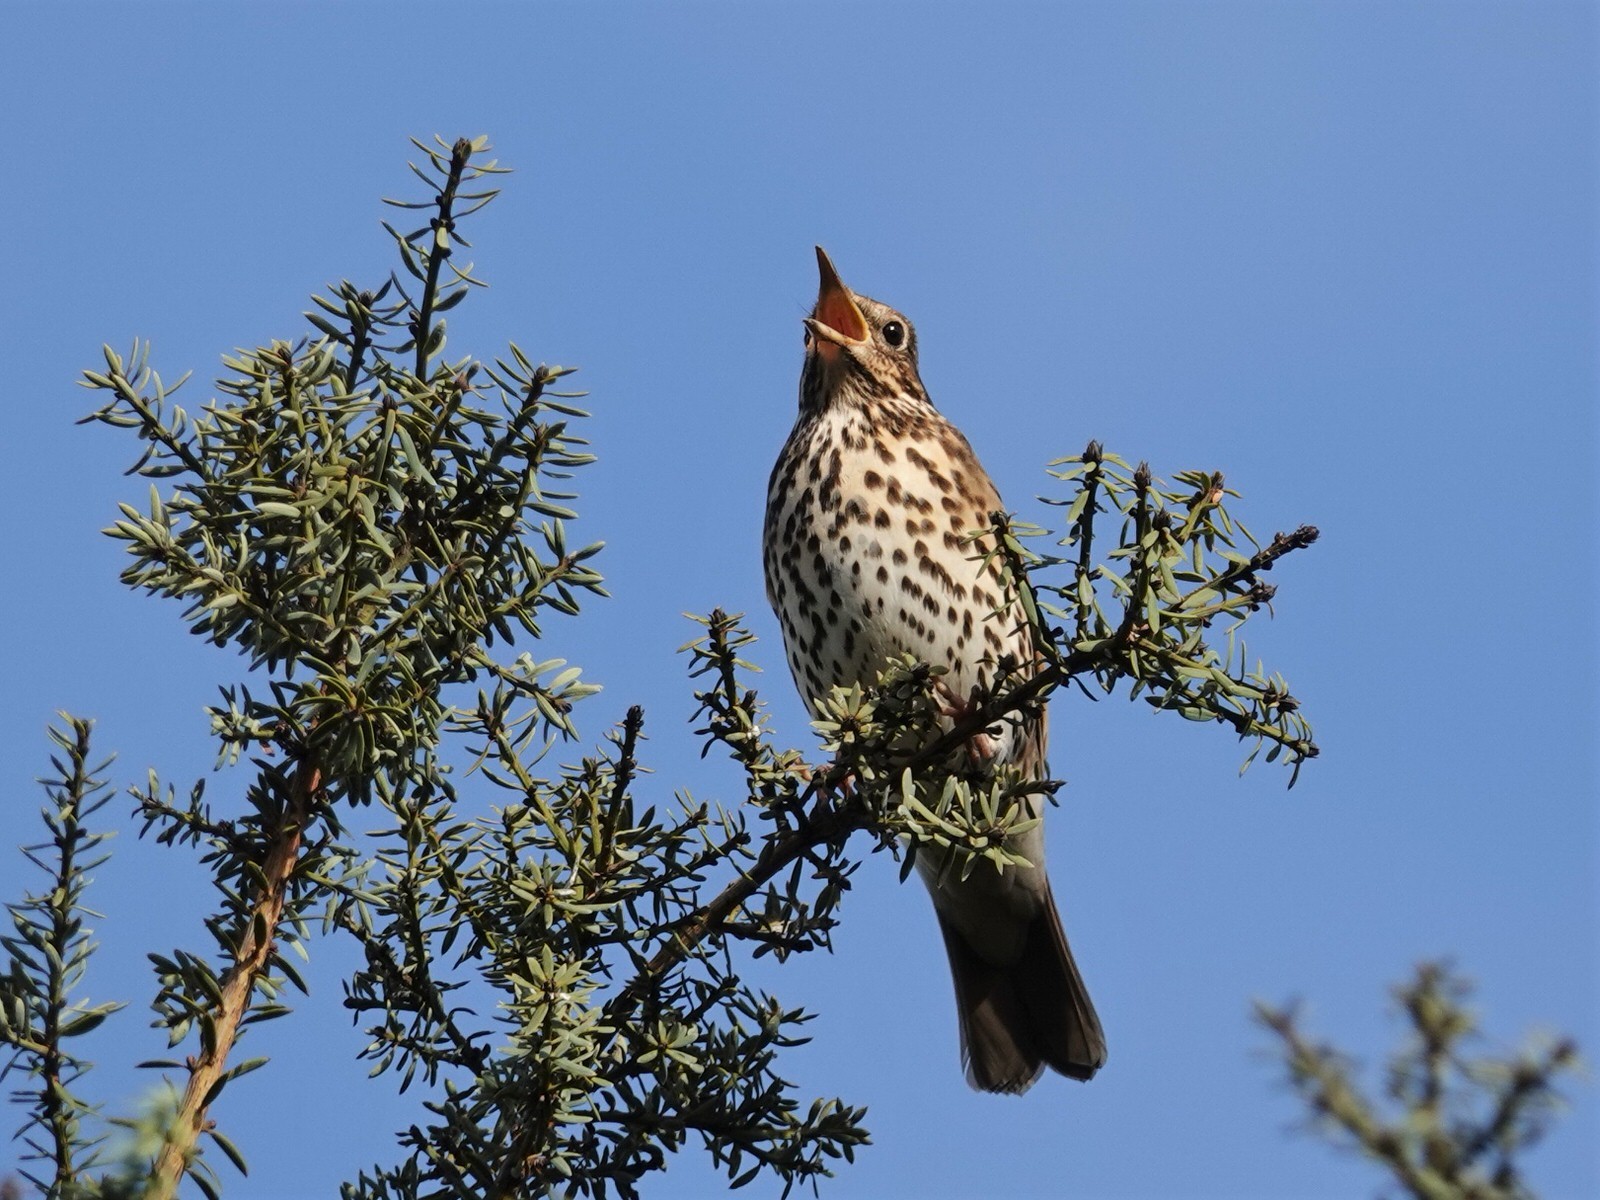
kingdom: Animalia
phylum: Chordata
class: Aves
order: Passeriformes
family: Turdidae
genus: Turdus
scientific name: Turdus philomelos
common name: Song thrush
